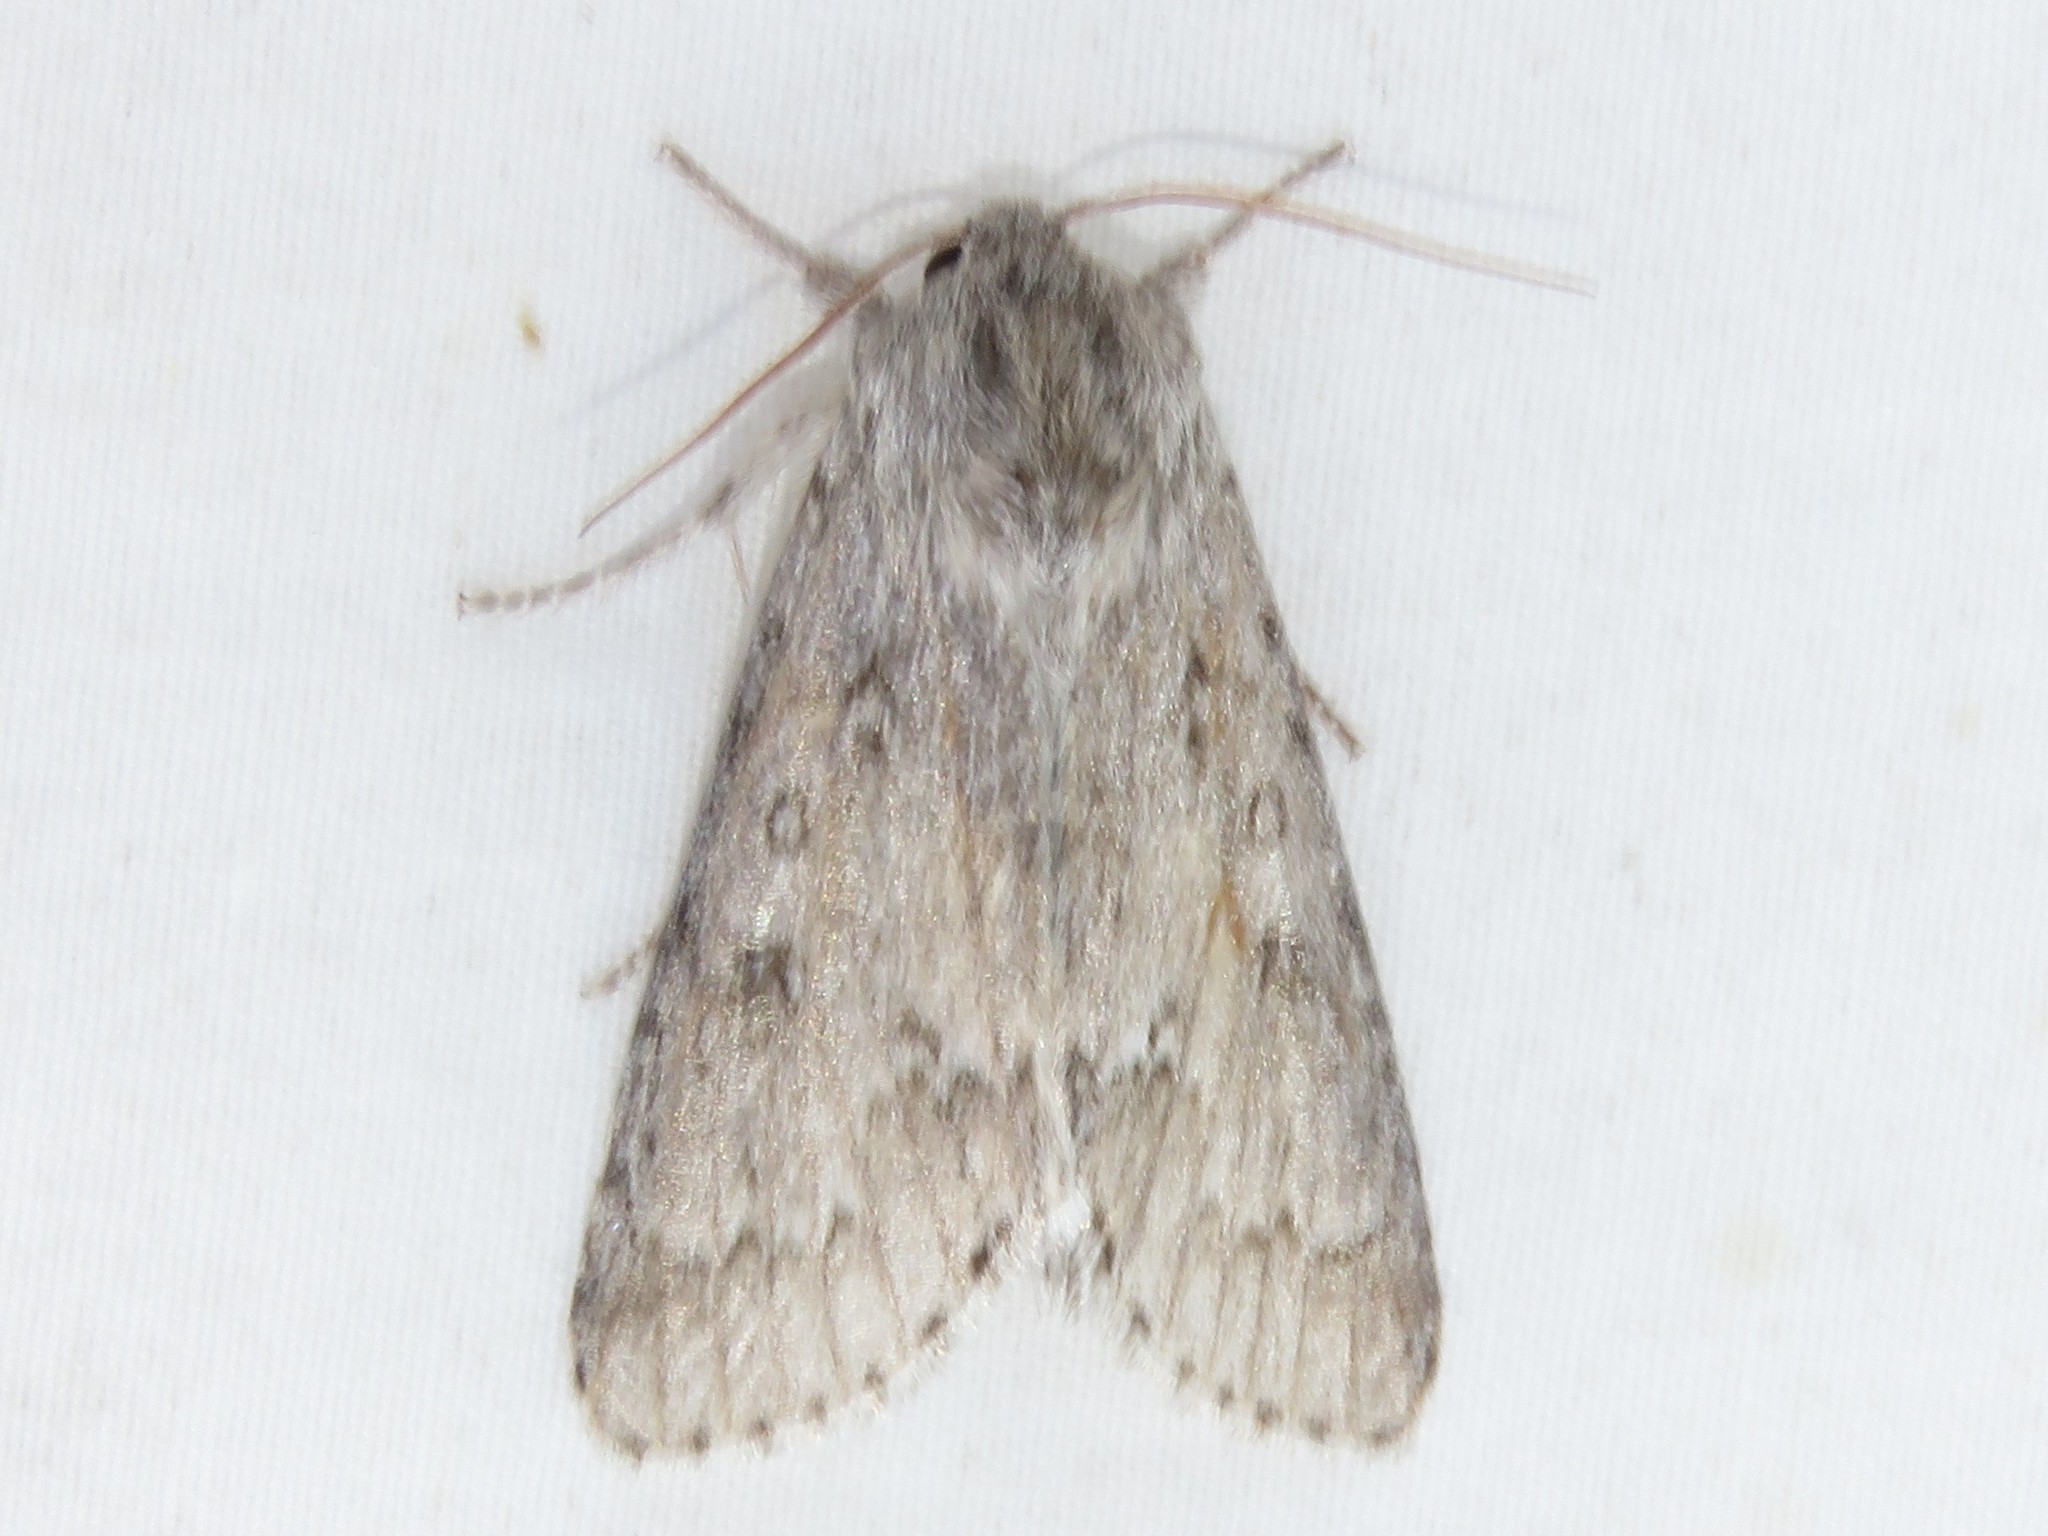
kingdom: Animalia
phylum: Arthropoda
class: Insecta
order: Lepidoptera
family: Noctuidae
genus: Acronicta
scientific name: Acronicta insita
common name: Large gray dagger
